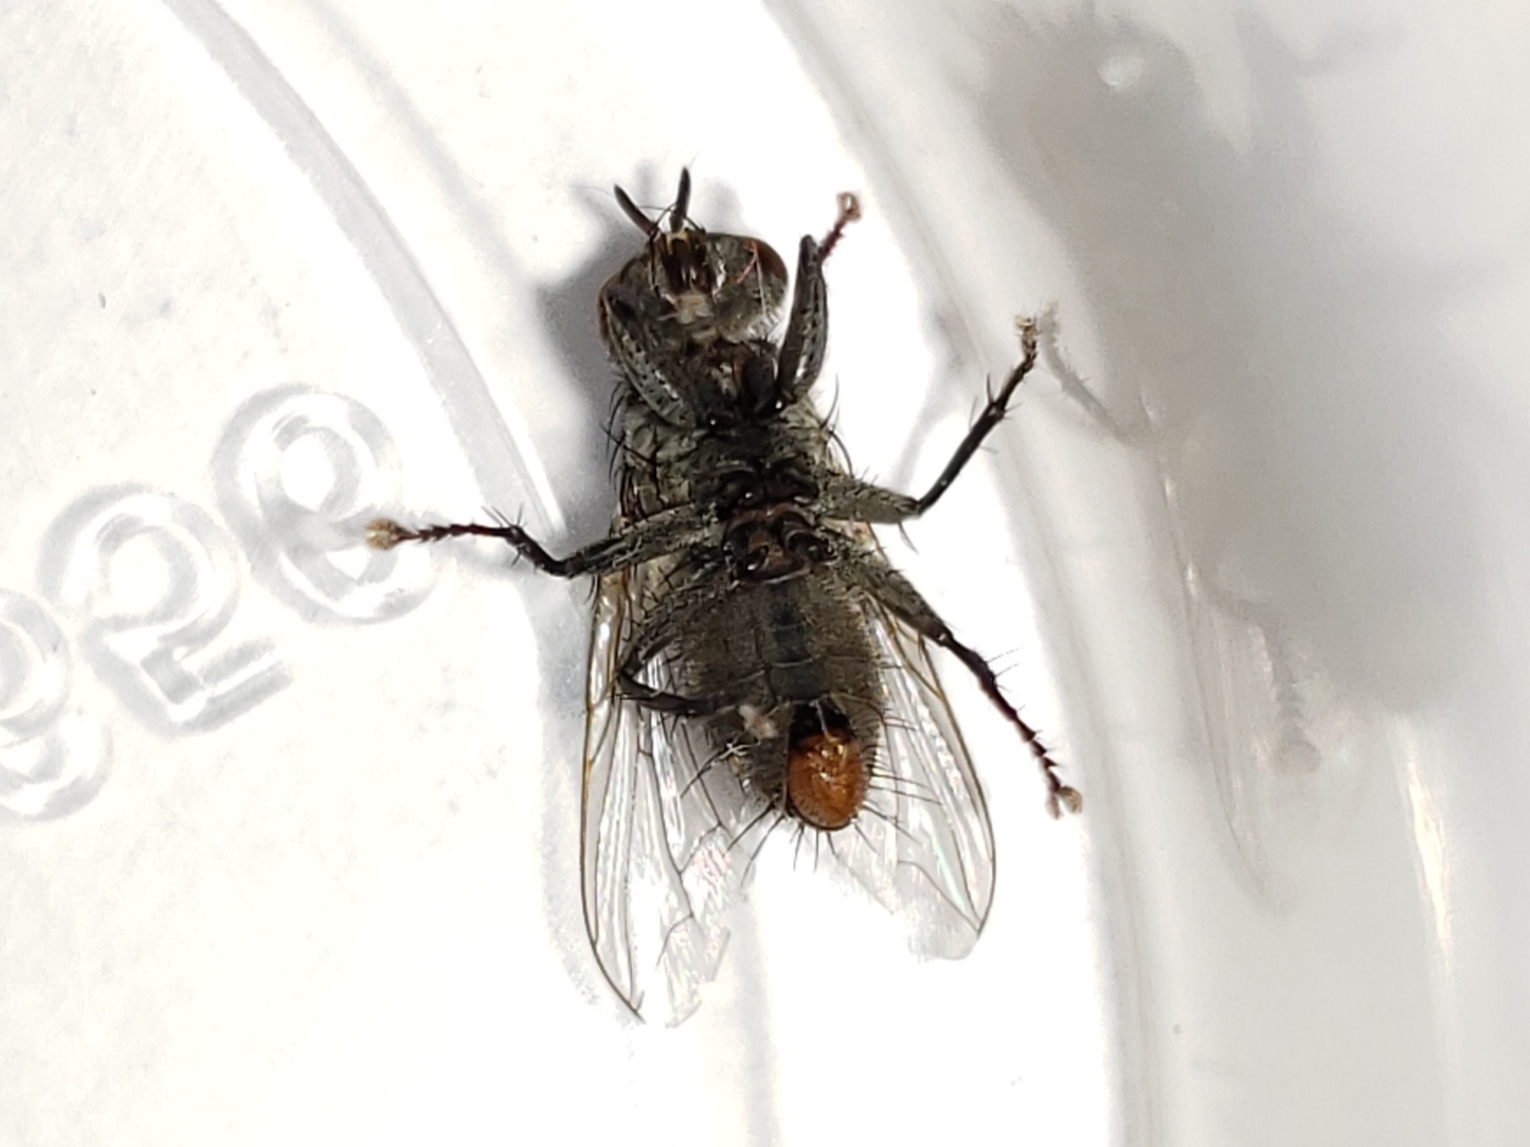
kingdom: Animalia
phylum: Arthropoda
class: Insecta
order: Diptera
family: Sarcophagidae
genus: Ravinia
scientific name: Ravinia derelicta
